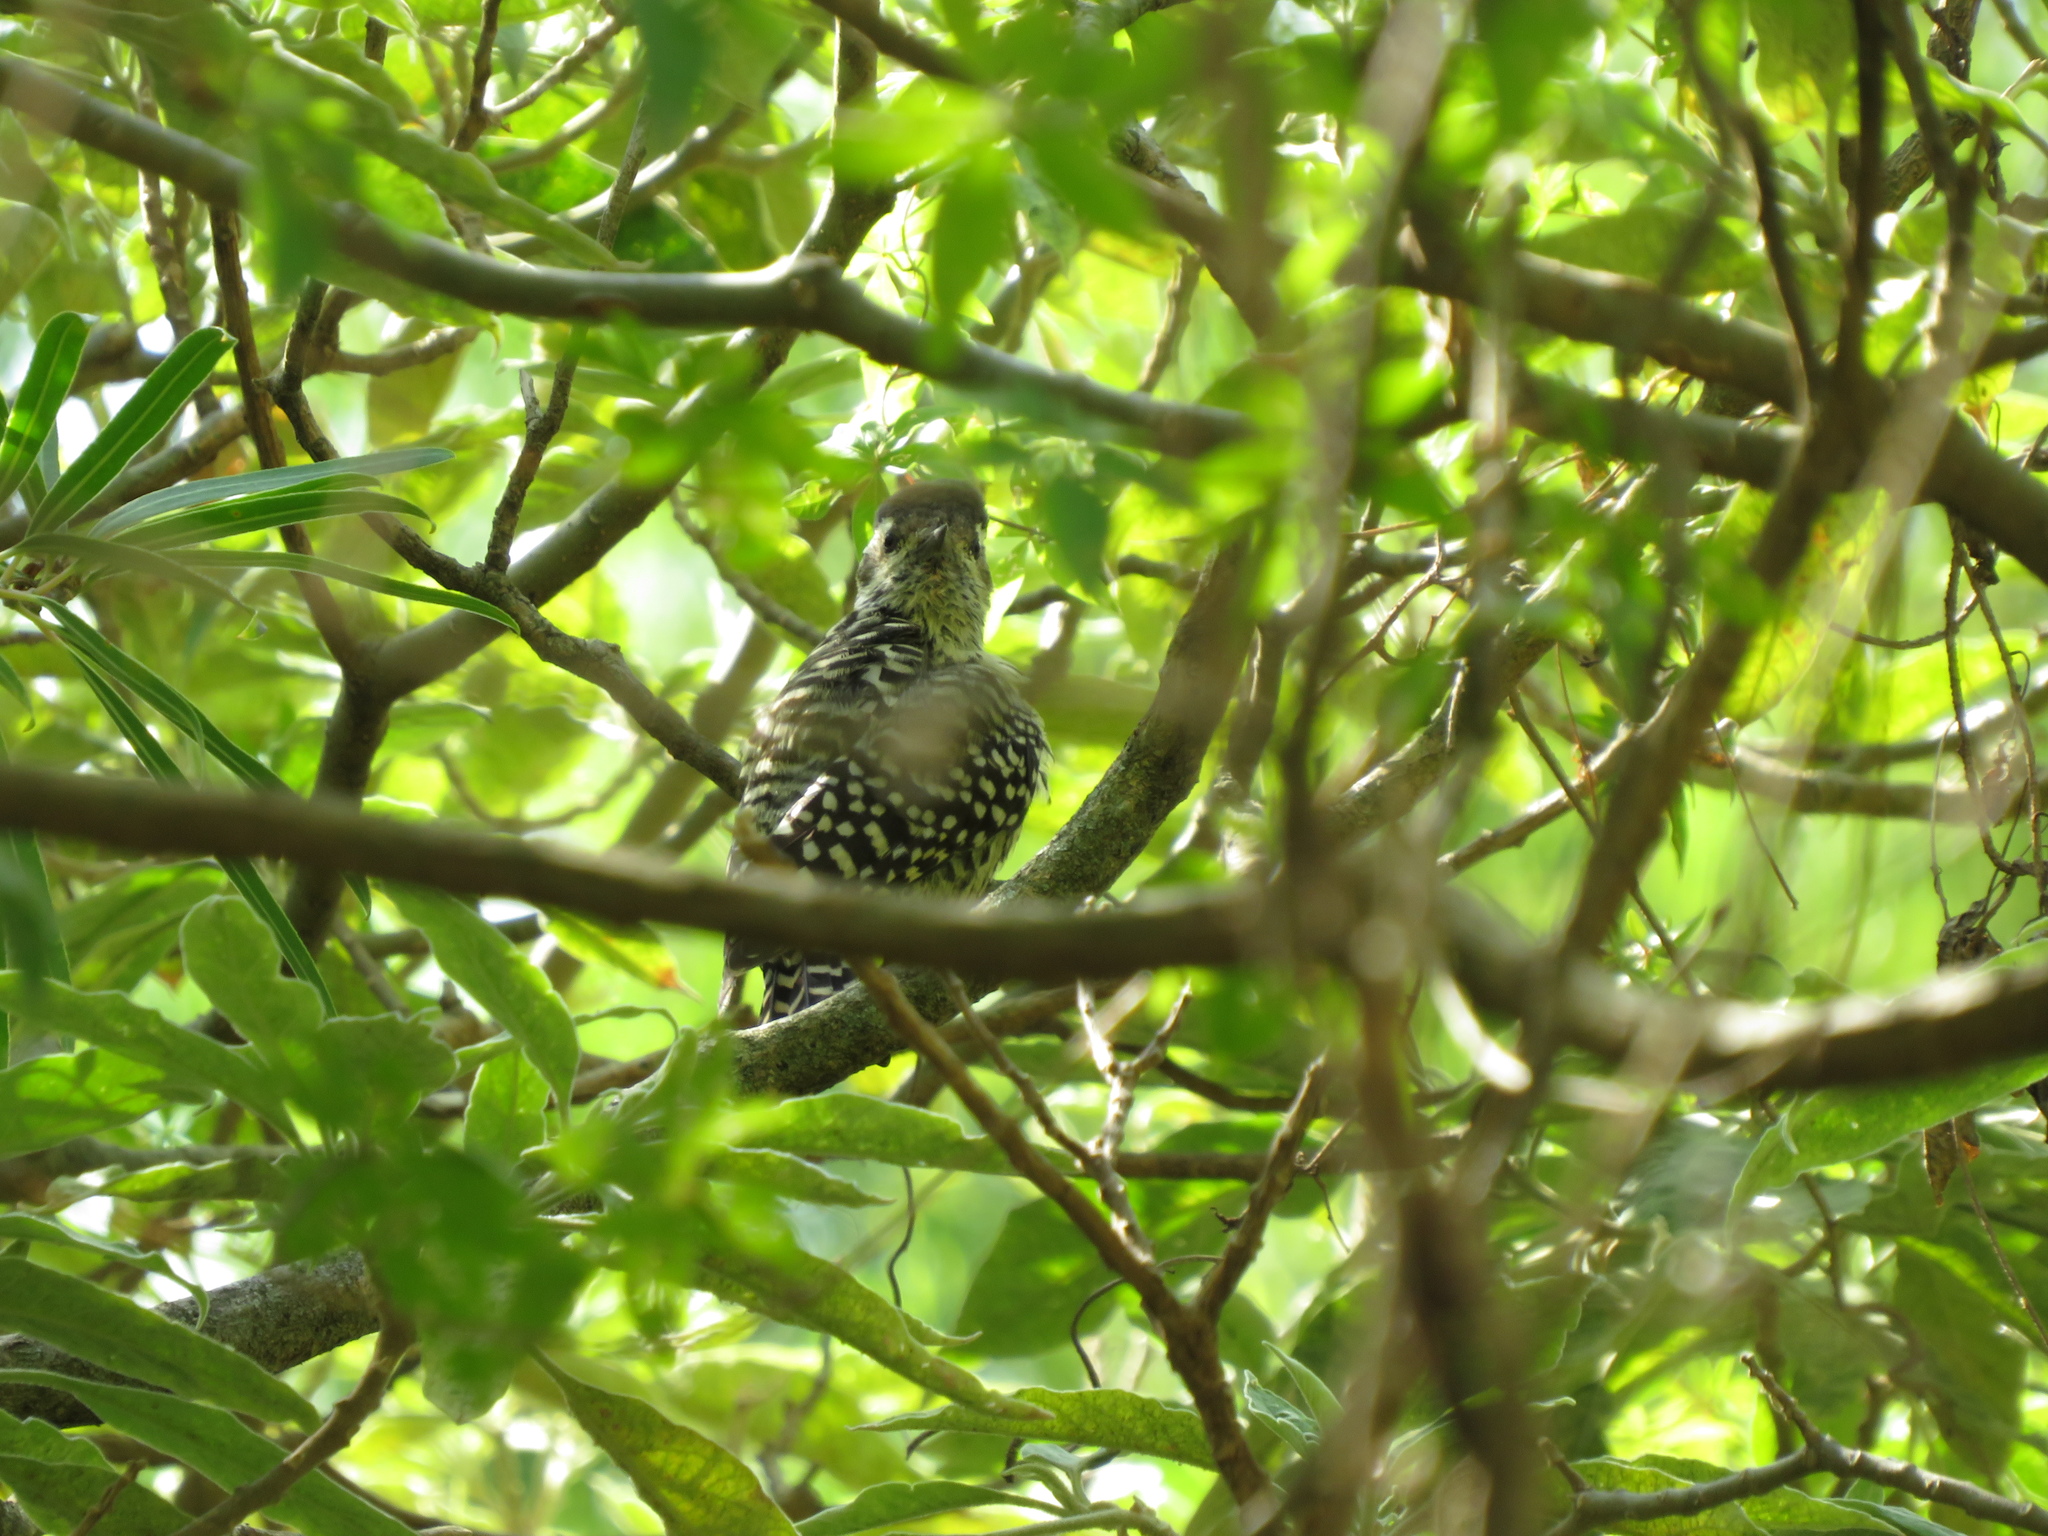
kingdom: Animalia
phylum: Chordata
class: Aves
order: Piciformes
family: Picidae
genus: Veniliornis
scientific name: Veniliornis mixtus
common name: Checkered woodpecker
